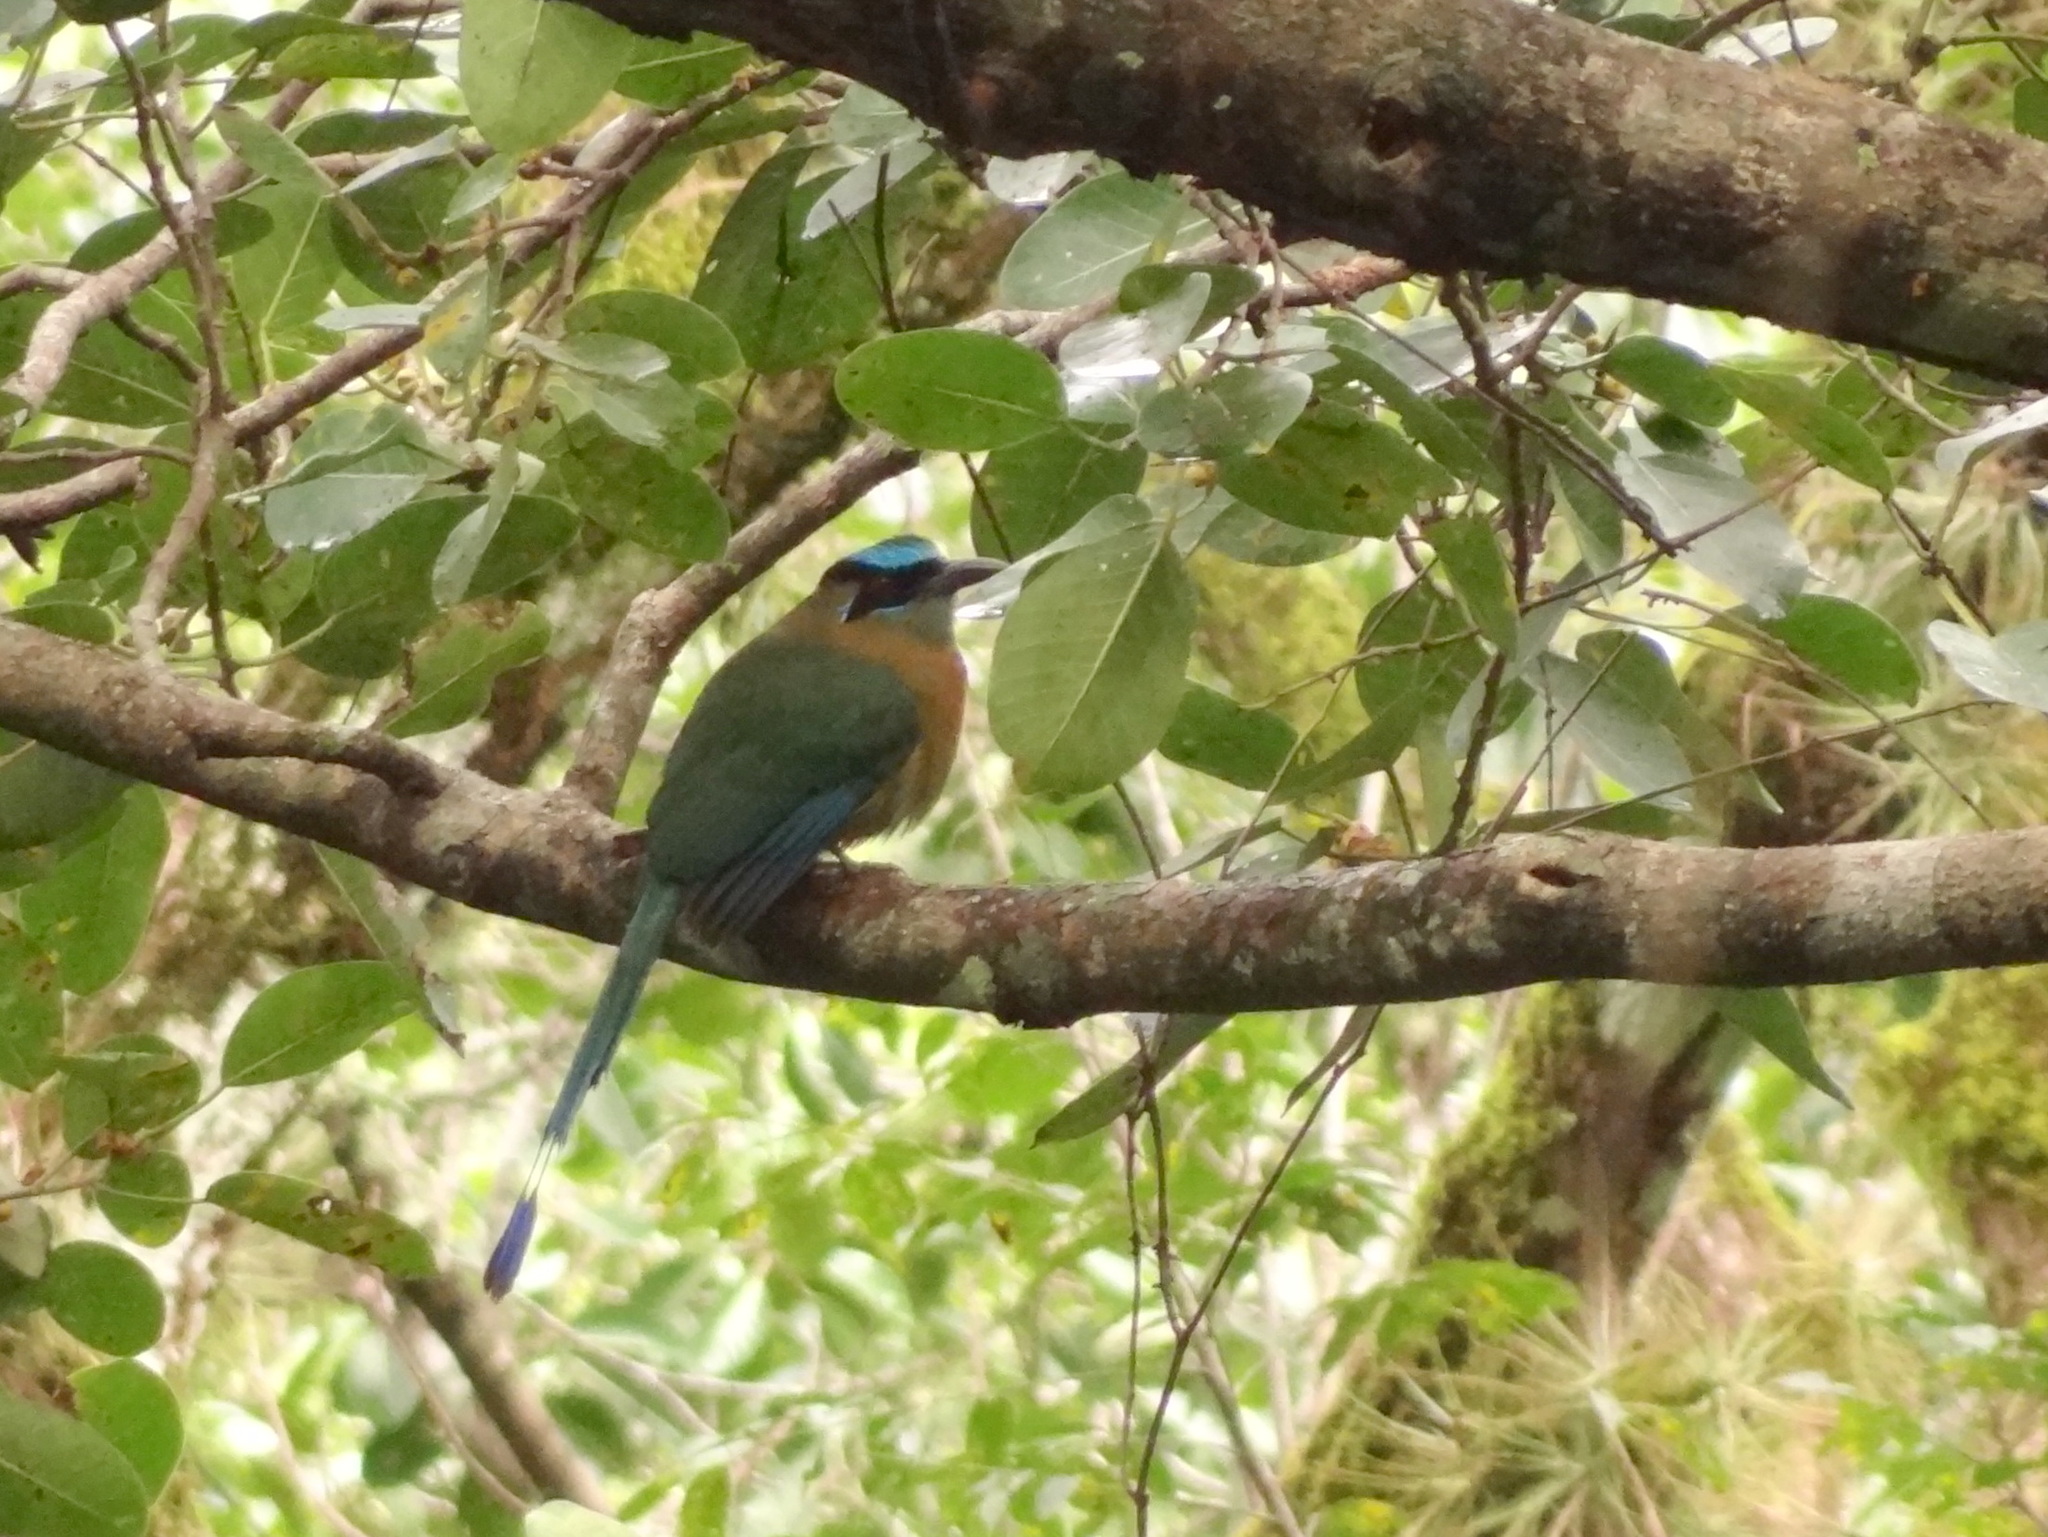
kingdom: Animalia
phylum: Chordata
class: Aves
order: Coraciiformes
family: Momotidae
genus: Momotus
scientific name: Momotus lessonii
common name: Lesson's motmot
